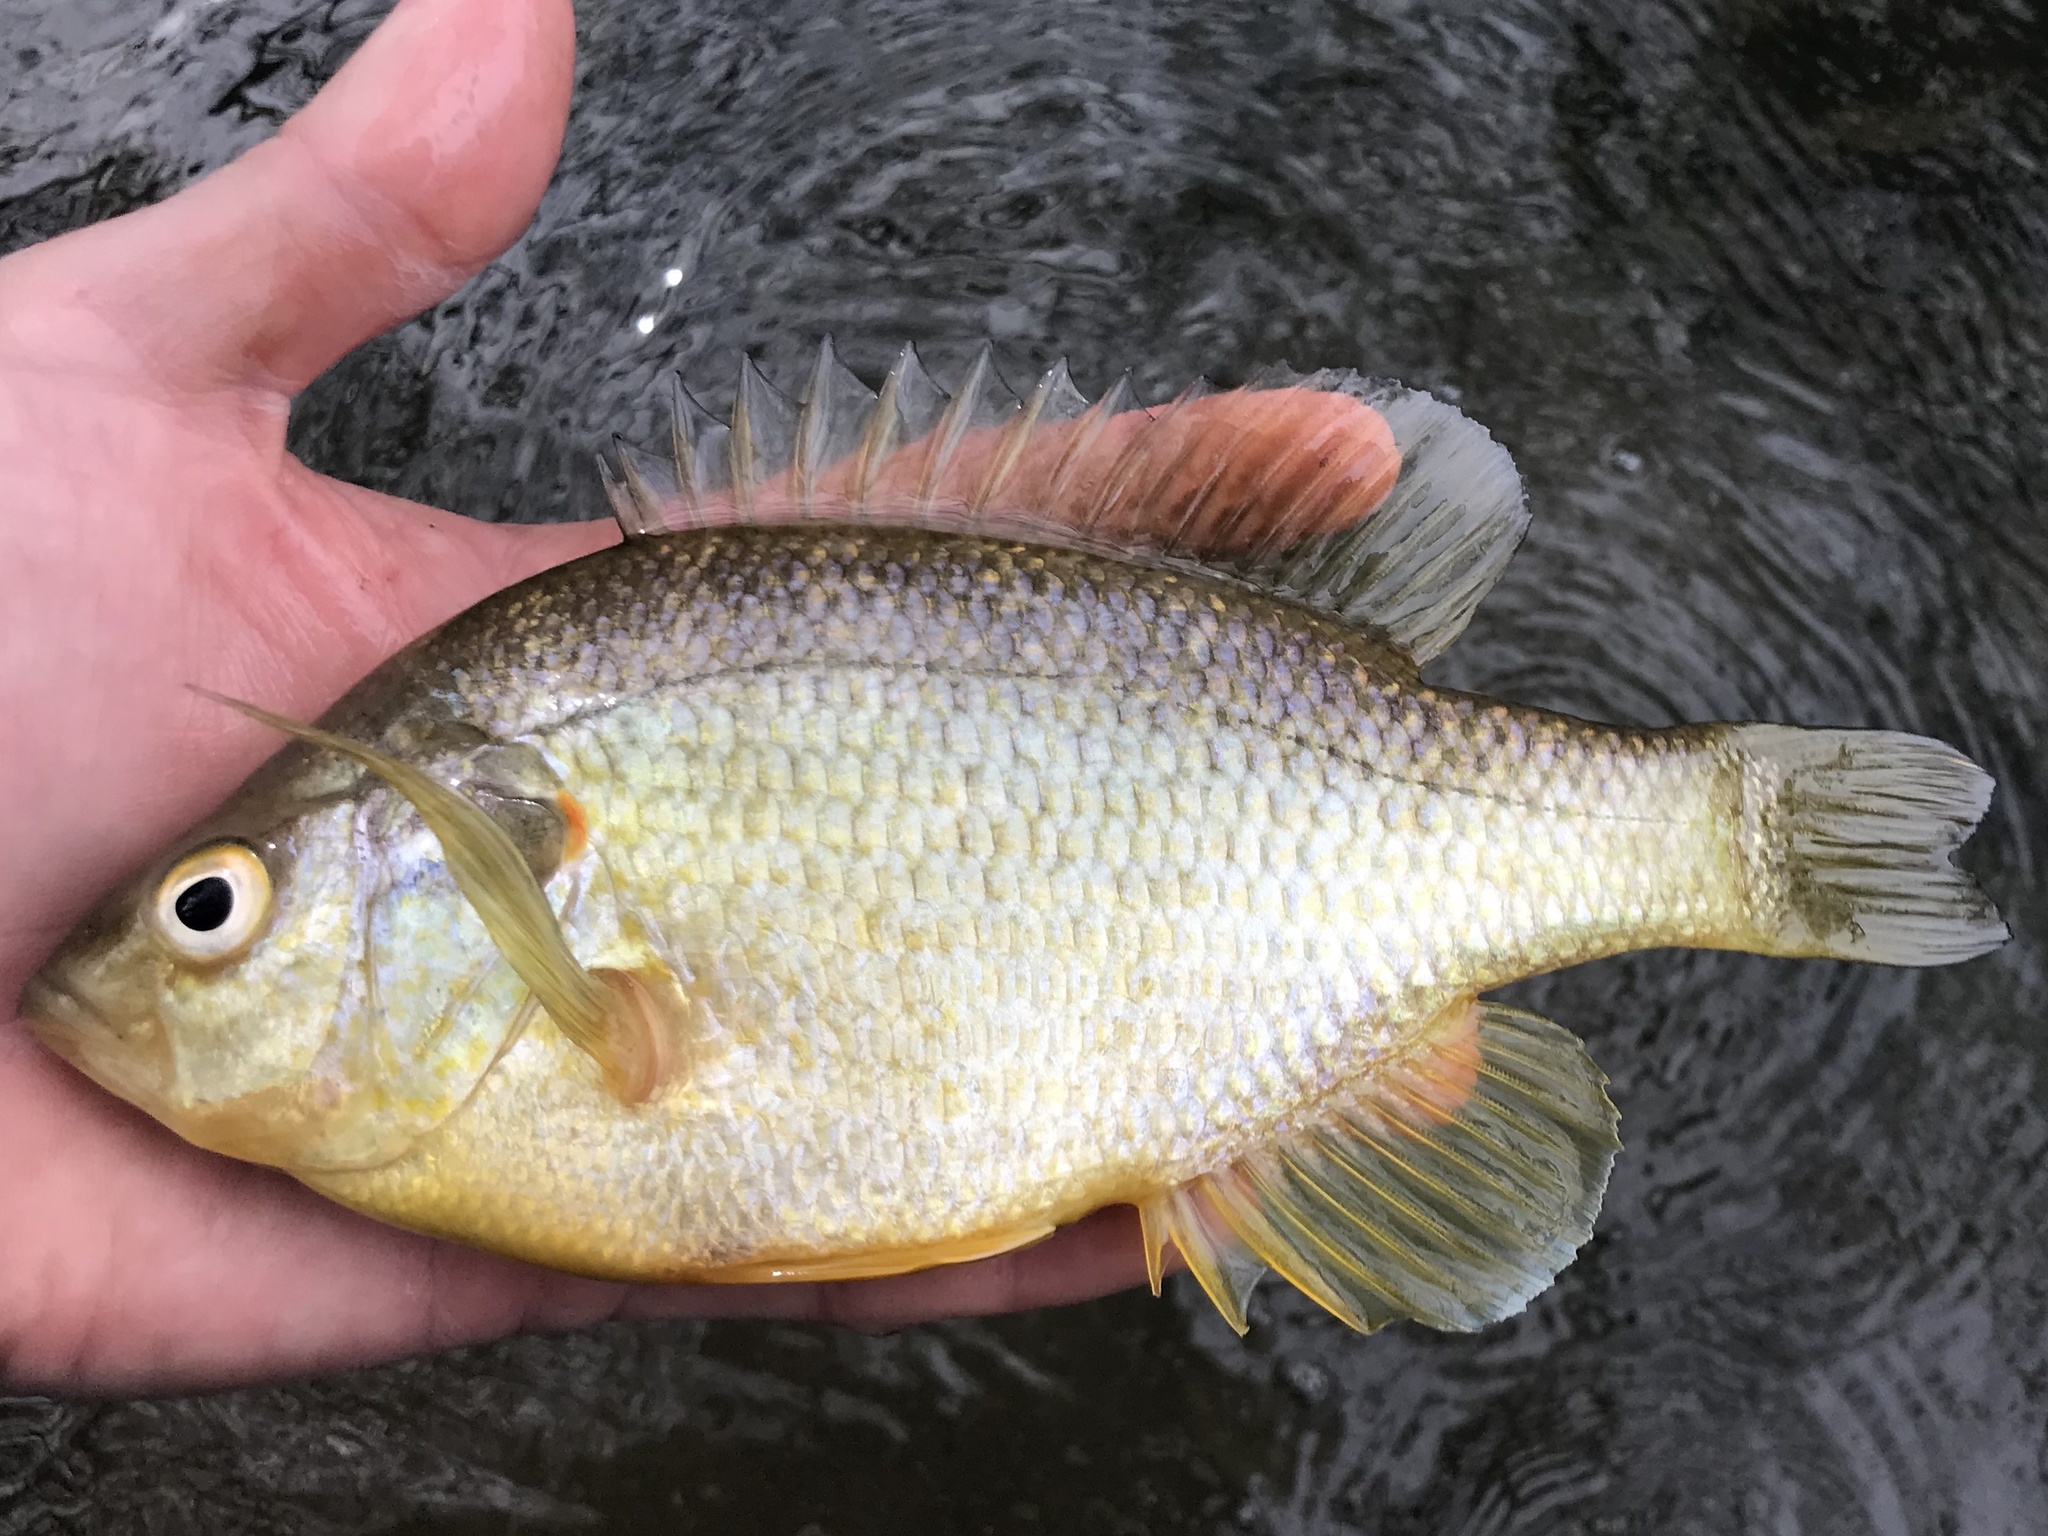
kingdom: Animalia
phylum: Chordata
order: Perciformes
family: Centrarchidae
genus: Lepomis
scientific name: Lepomis microlophus
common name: Redear sunfish
